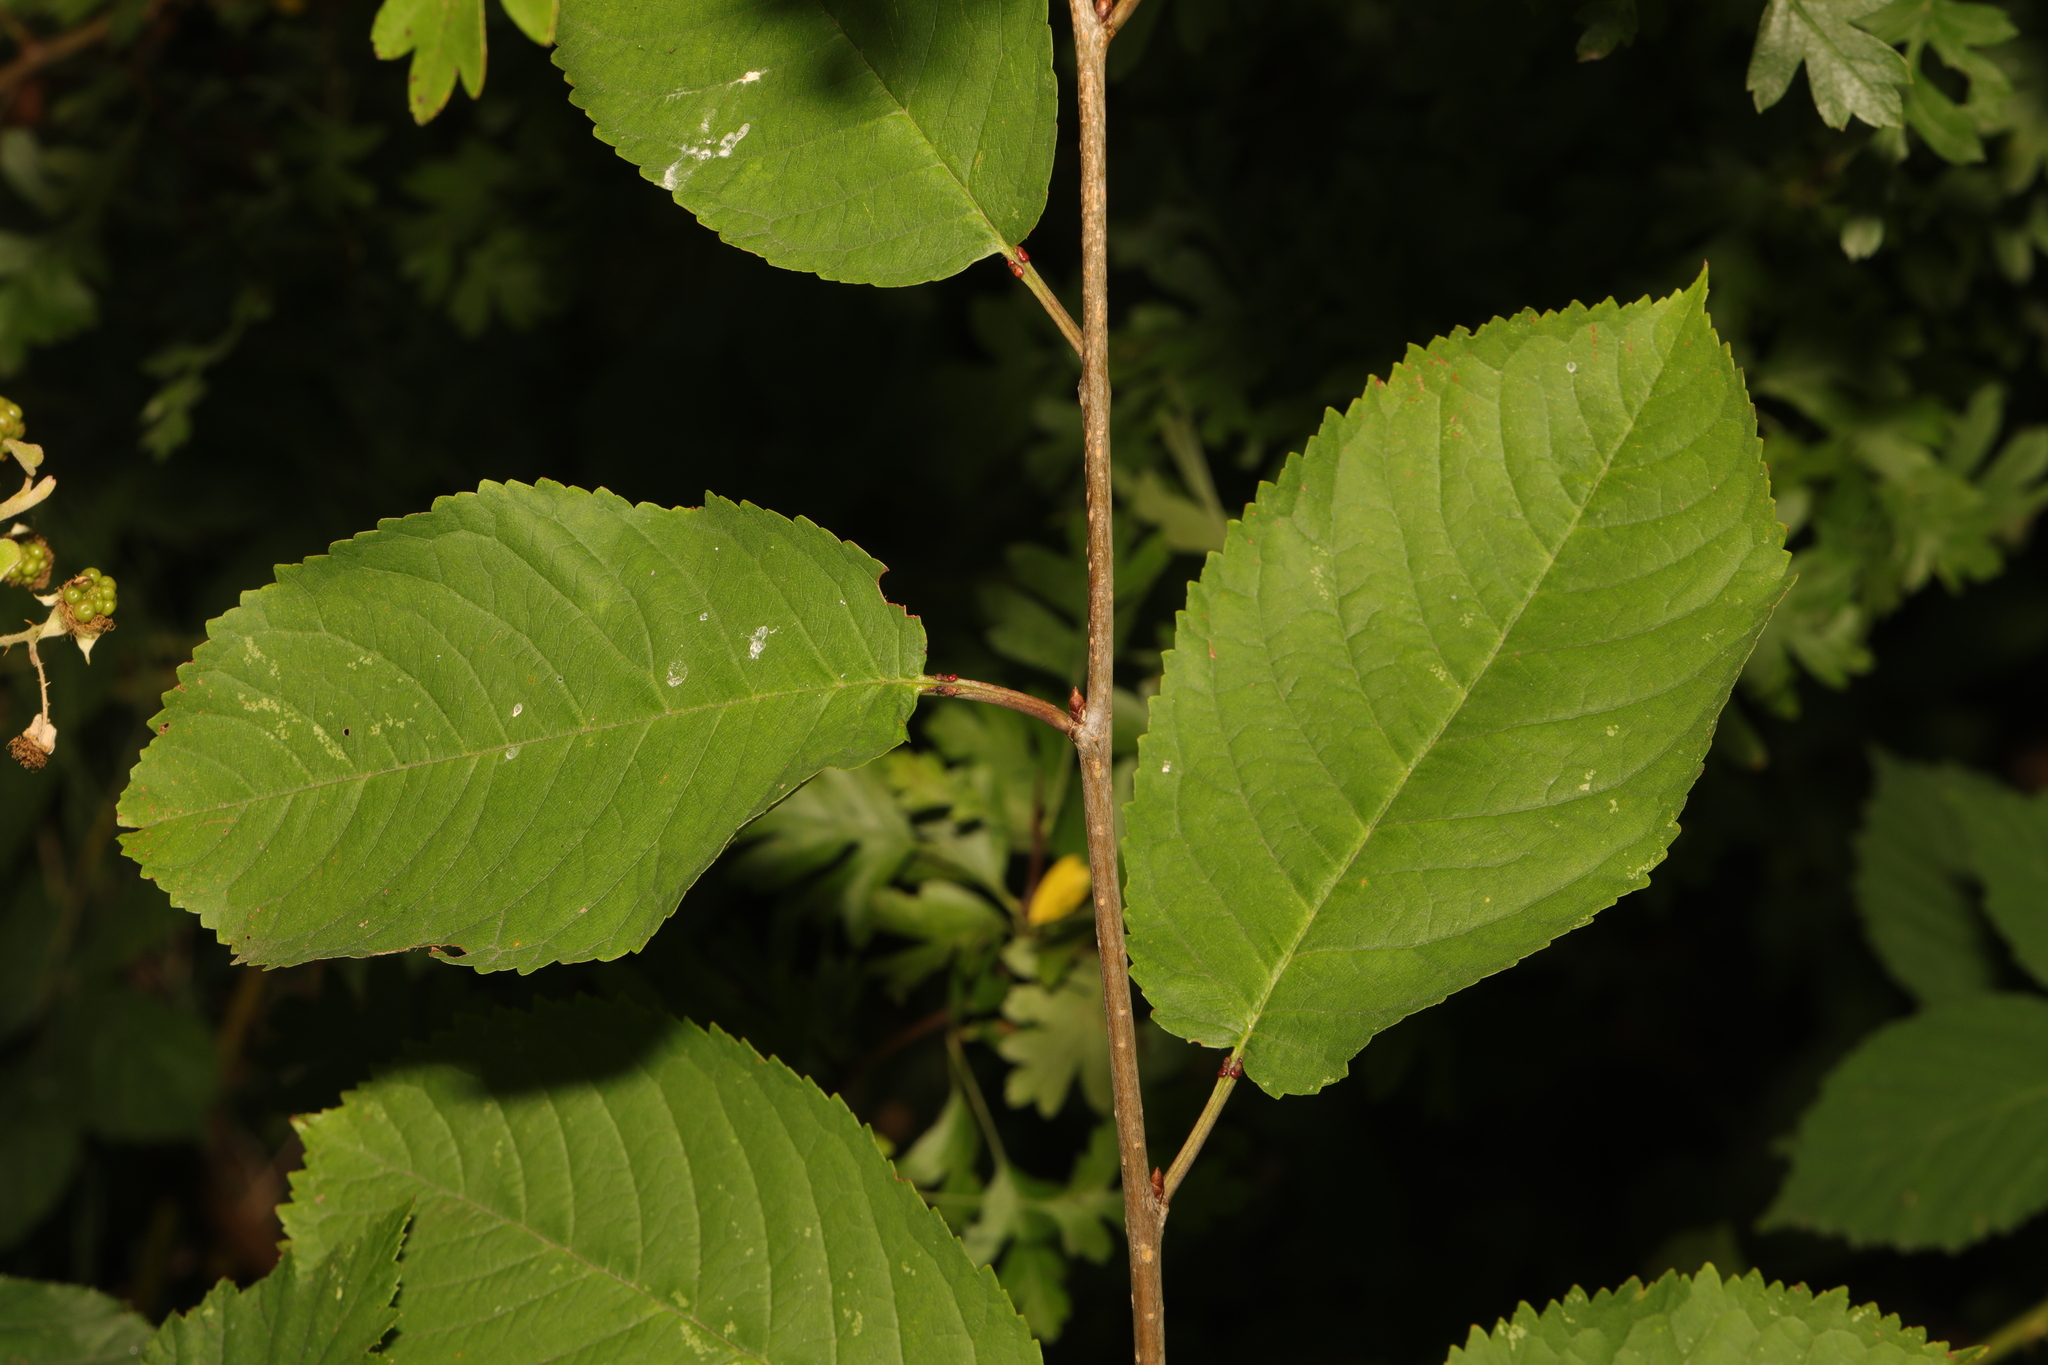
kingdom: Plantae
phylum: Tracheophyta
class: Magnoliopsida
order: Rosales
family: Rosaceae
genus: Prunus
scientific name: Prunus avium
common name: Sweet cherry
